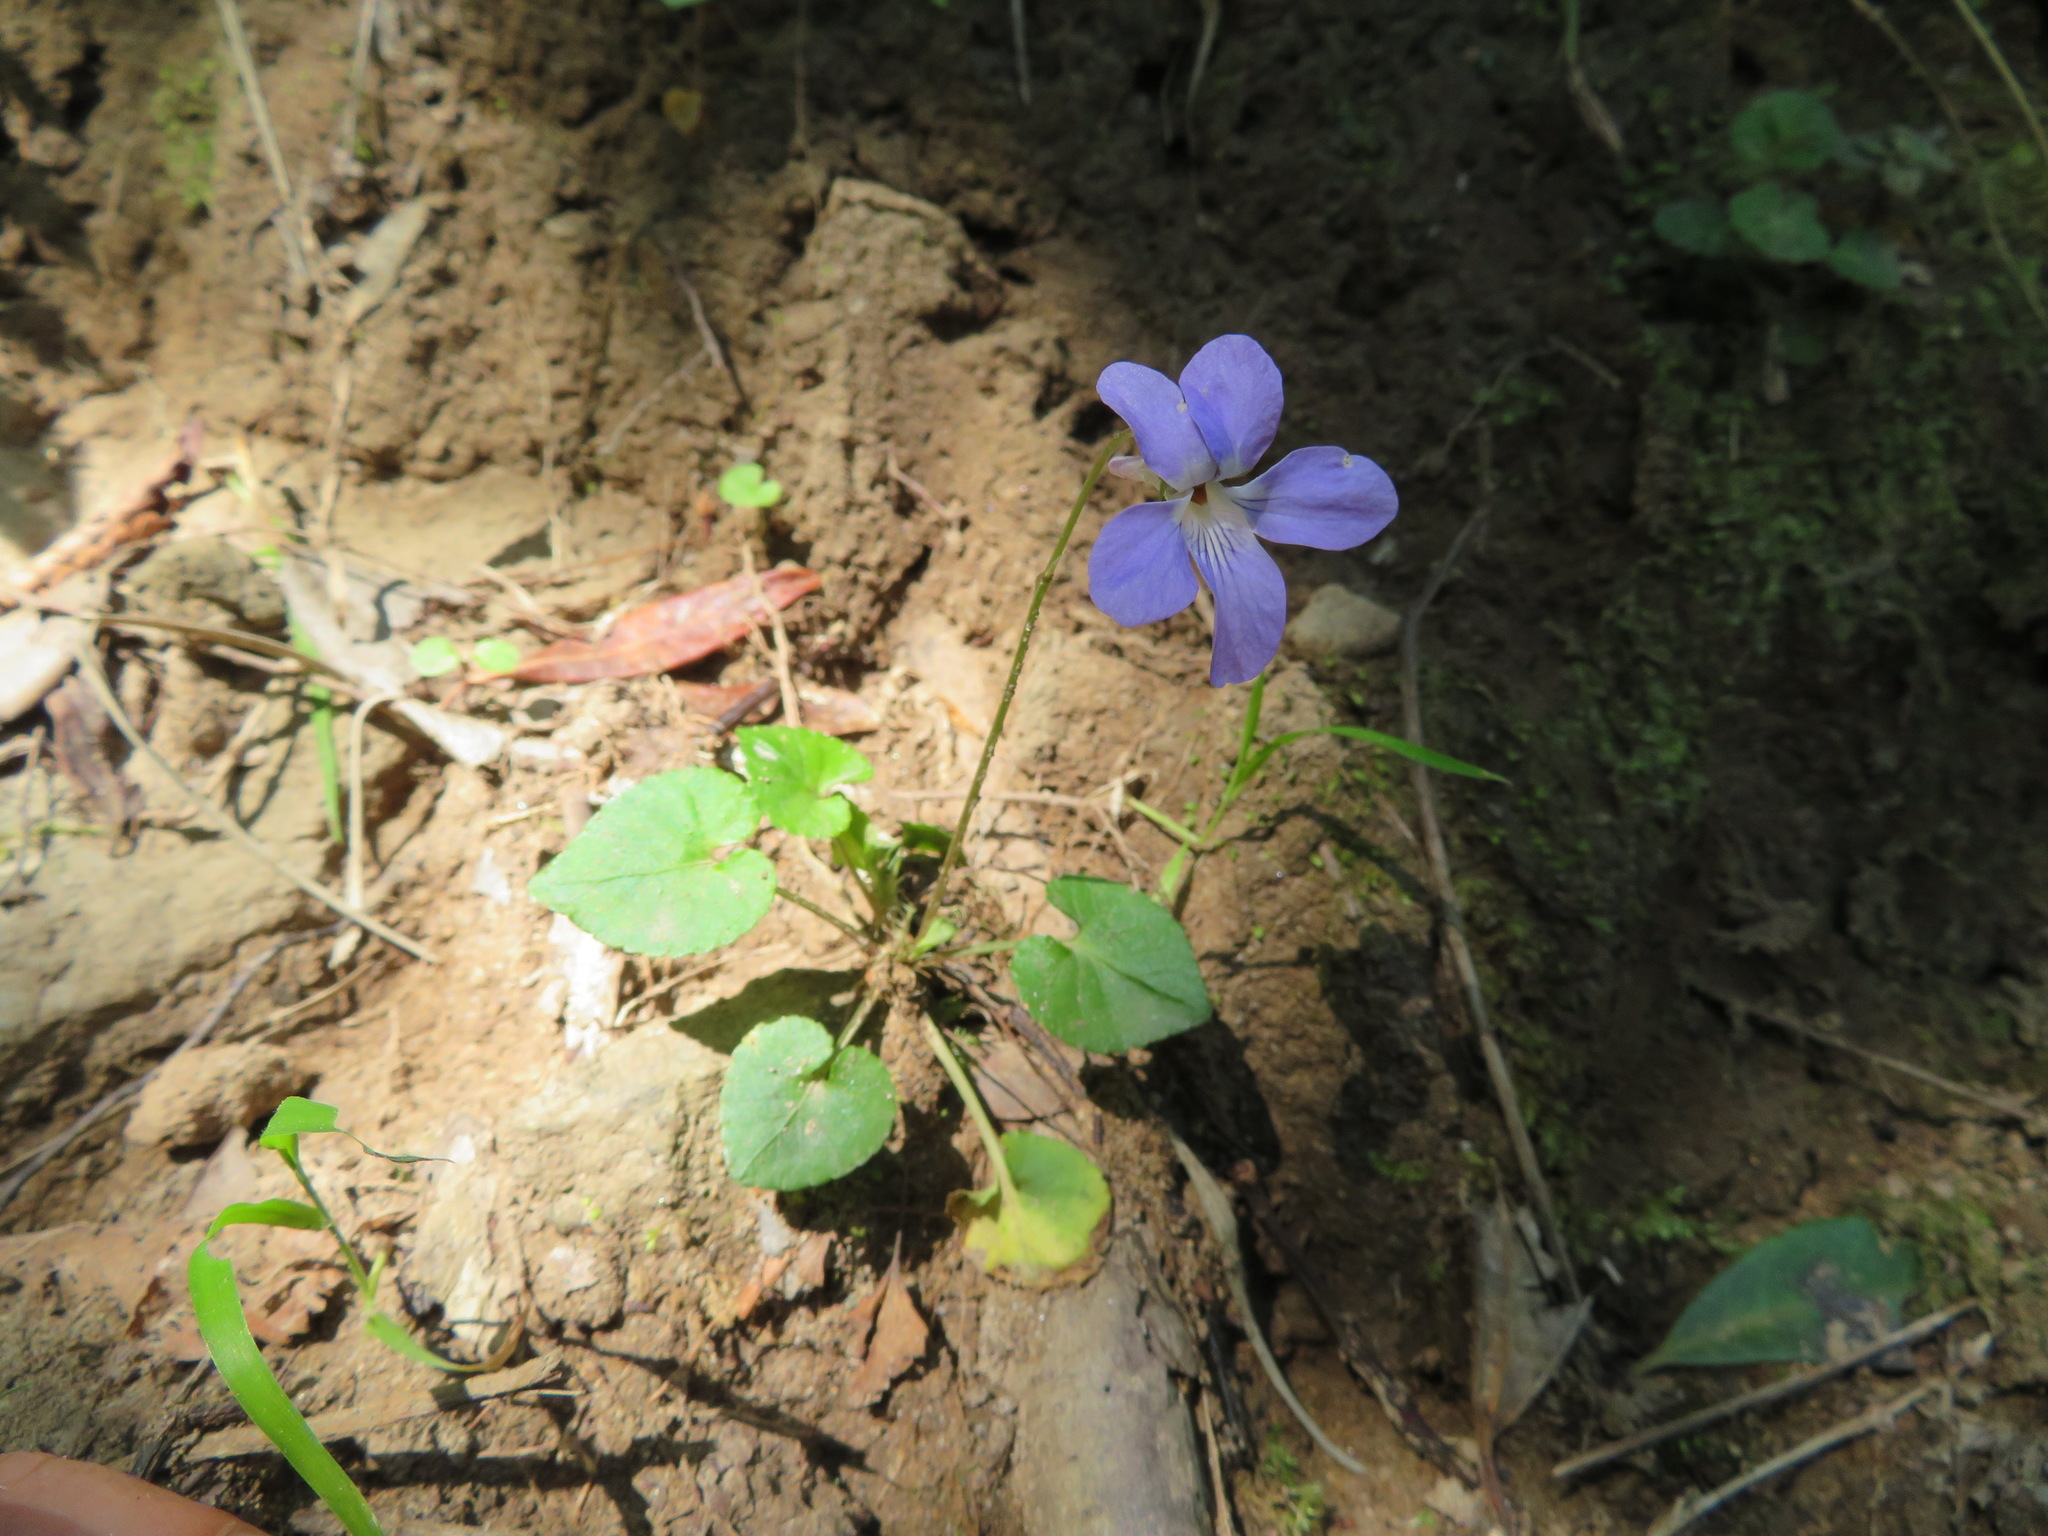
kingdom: Plantae
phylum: Tracheophyta
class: Magnoliopsida
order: Malpighiales
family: Violaceae
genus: Viola
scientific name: Viola grypoceras
